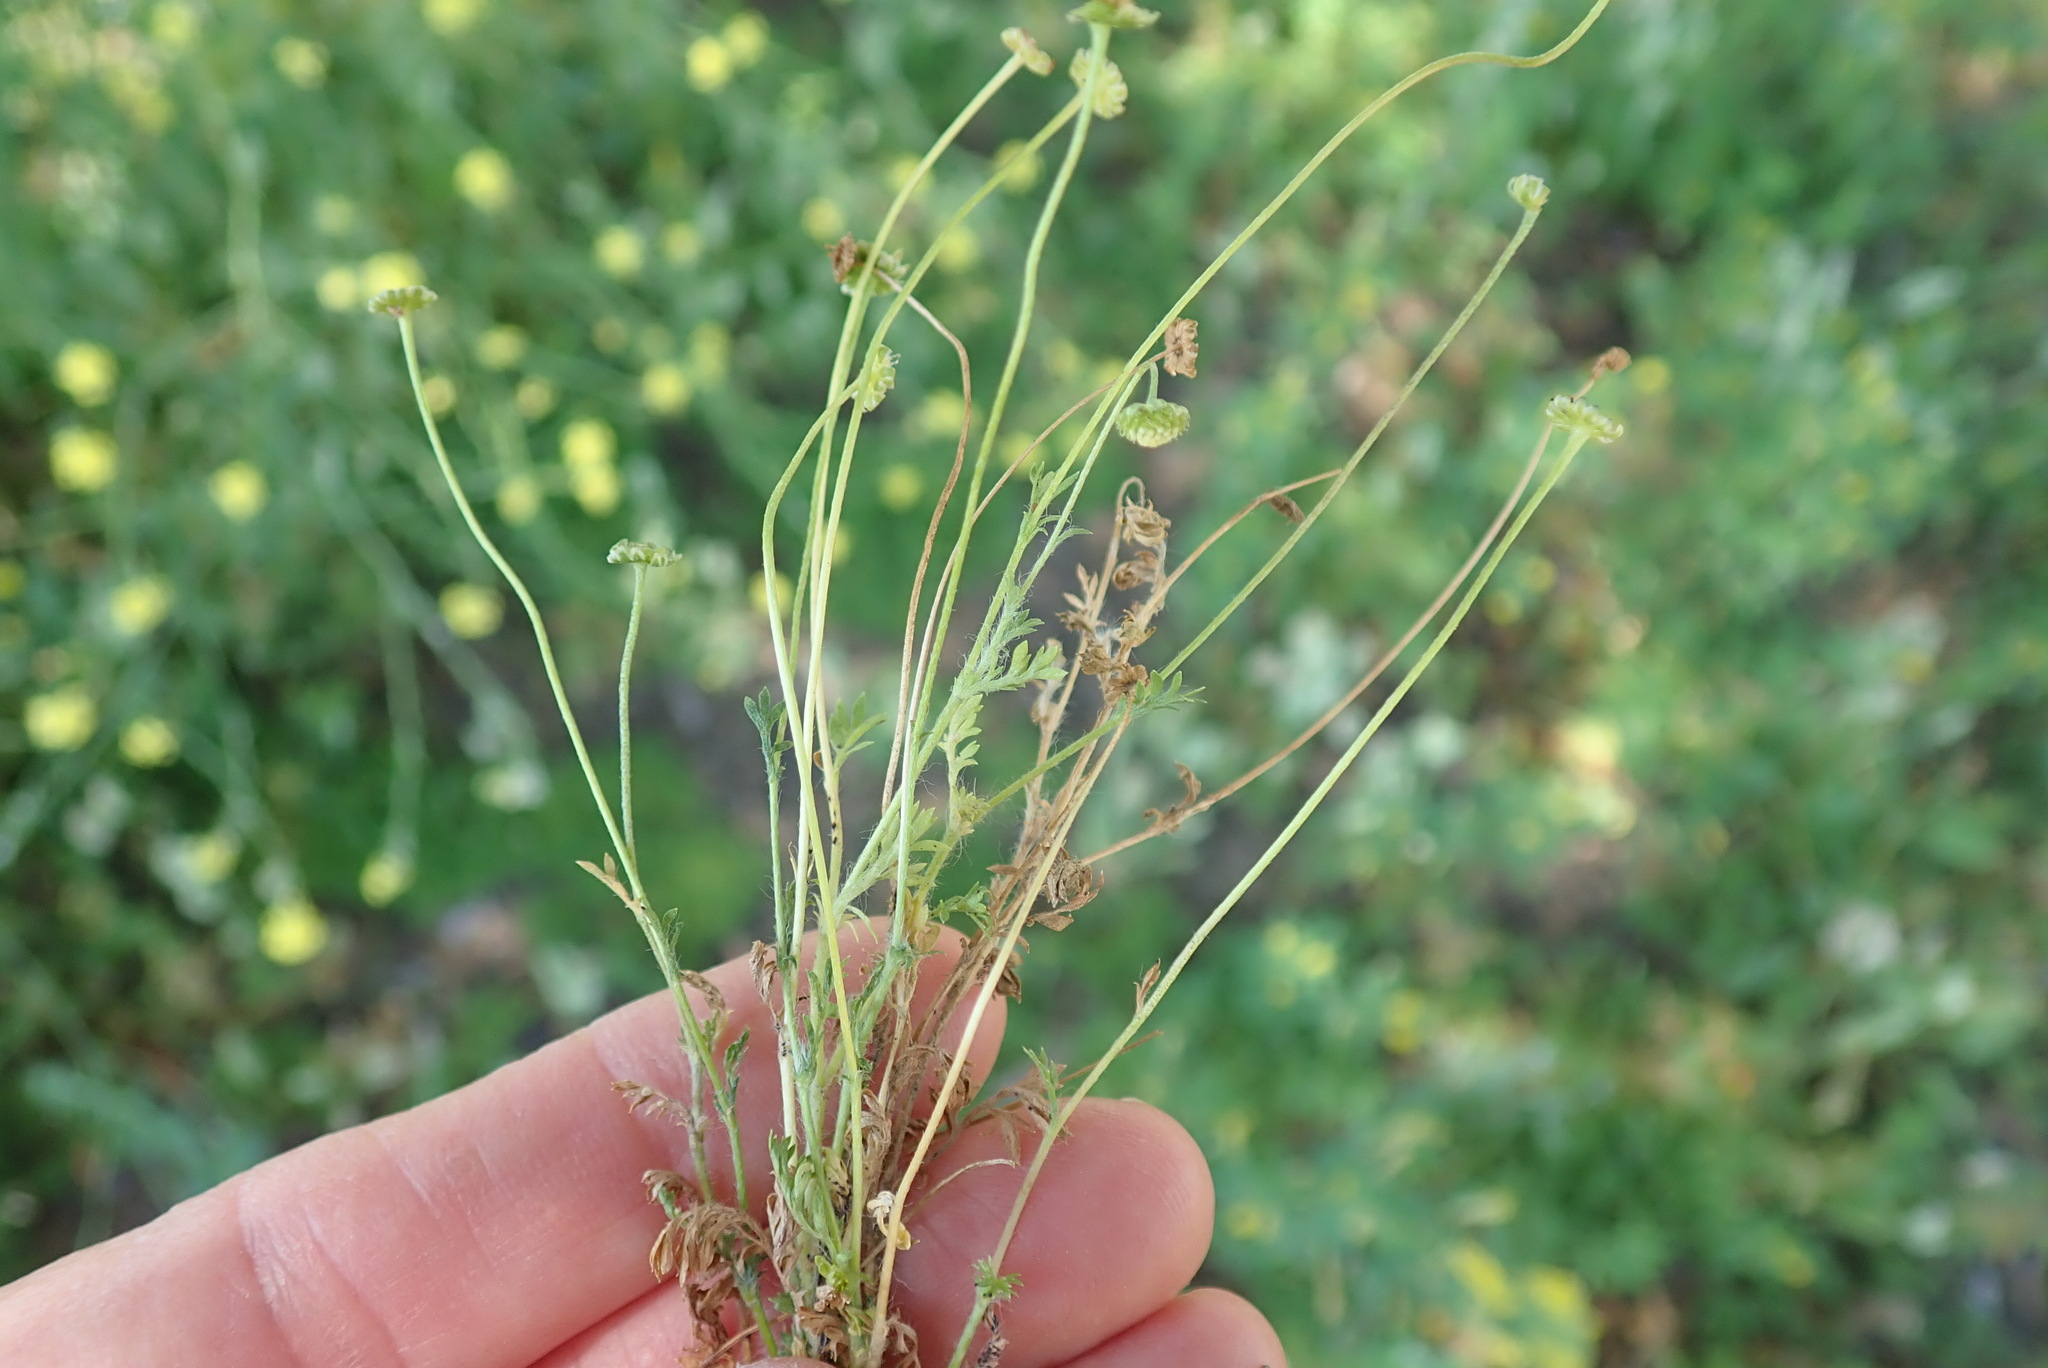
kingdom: Plantae
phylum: Tracheophyta
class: Magnoliopsida
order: Asterales
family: Asteraceae
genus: Cotula
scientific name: Cotula australis
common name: Australian waterbuttons
